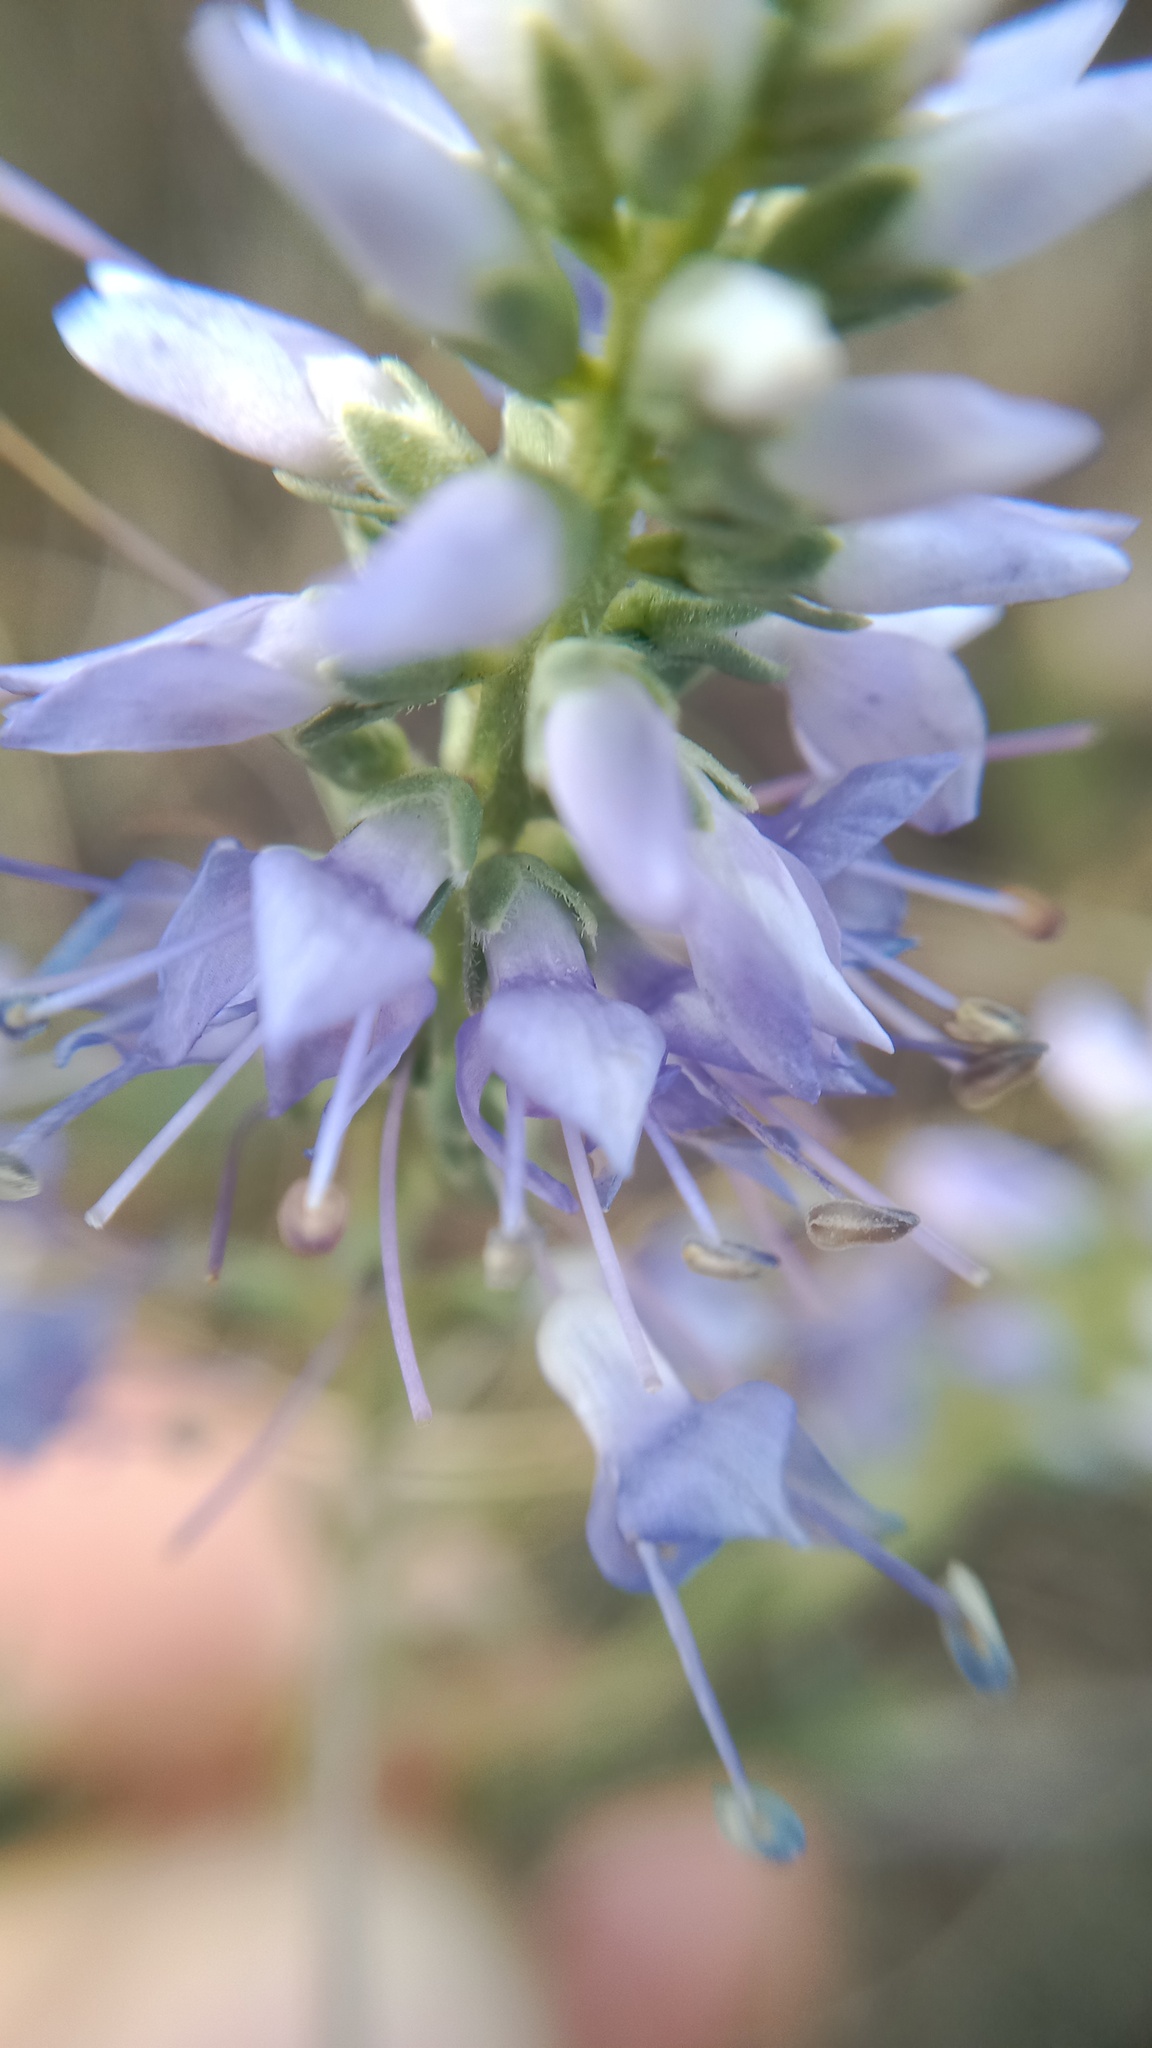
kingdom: Plantae
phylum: Tracheophyta
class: Magnoliopsida
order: Lamiales
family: Plantaginaceae
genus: Veronica
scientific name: Veronica barrelieri
